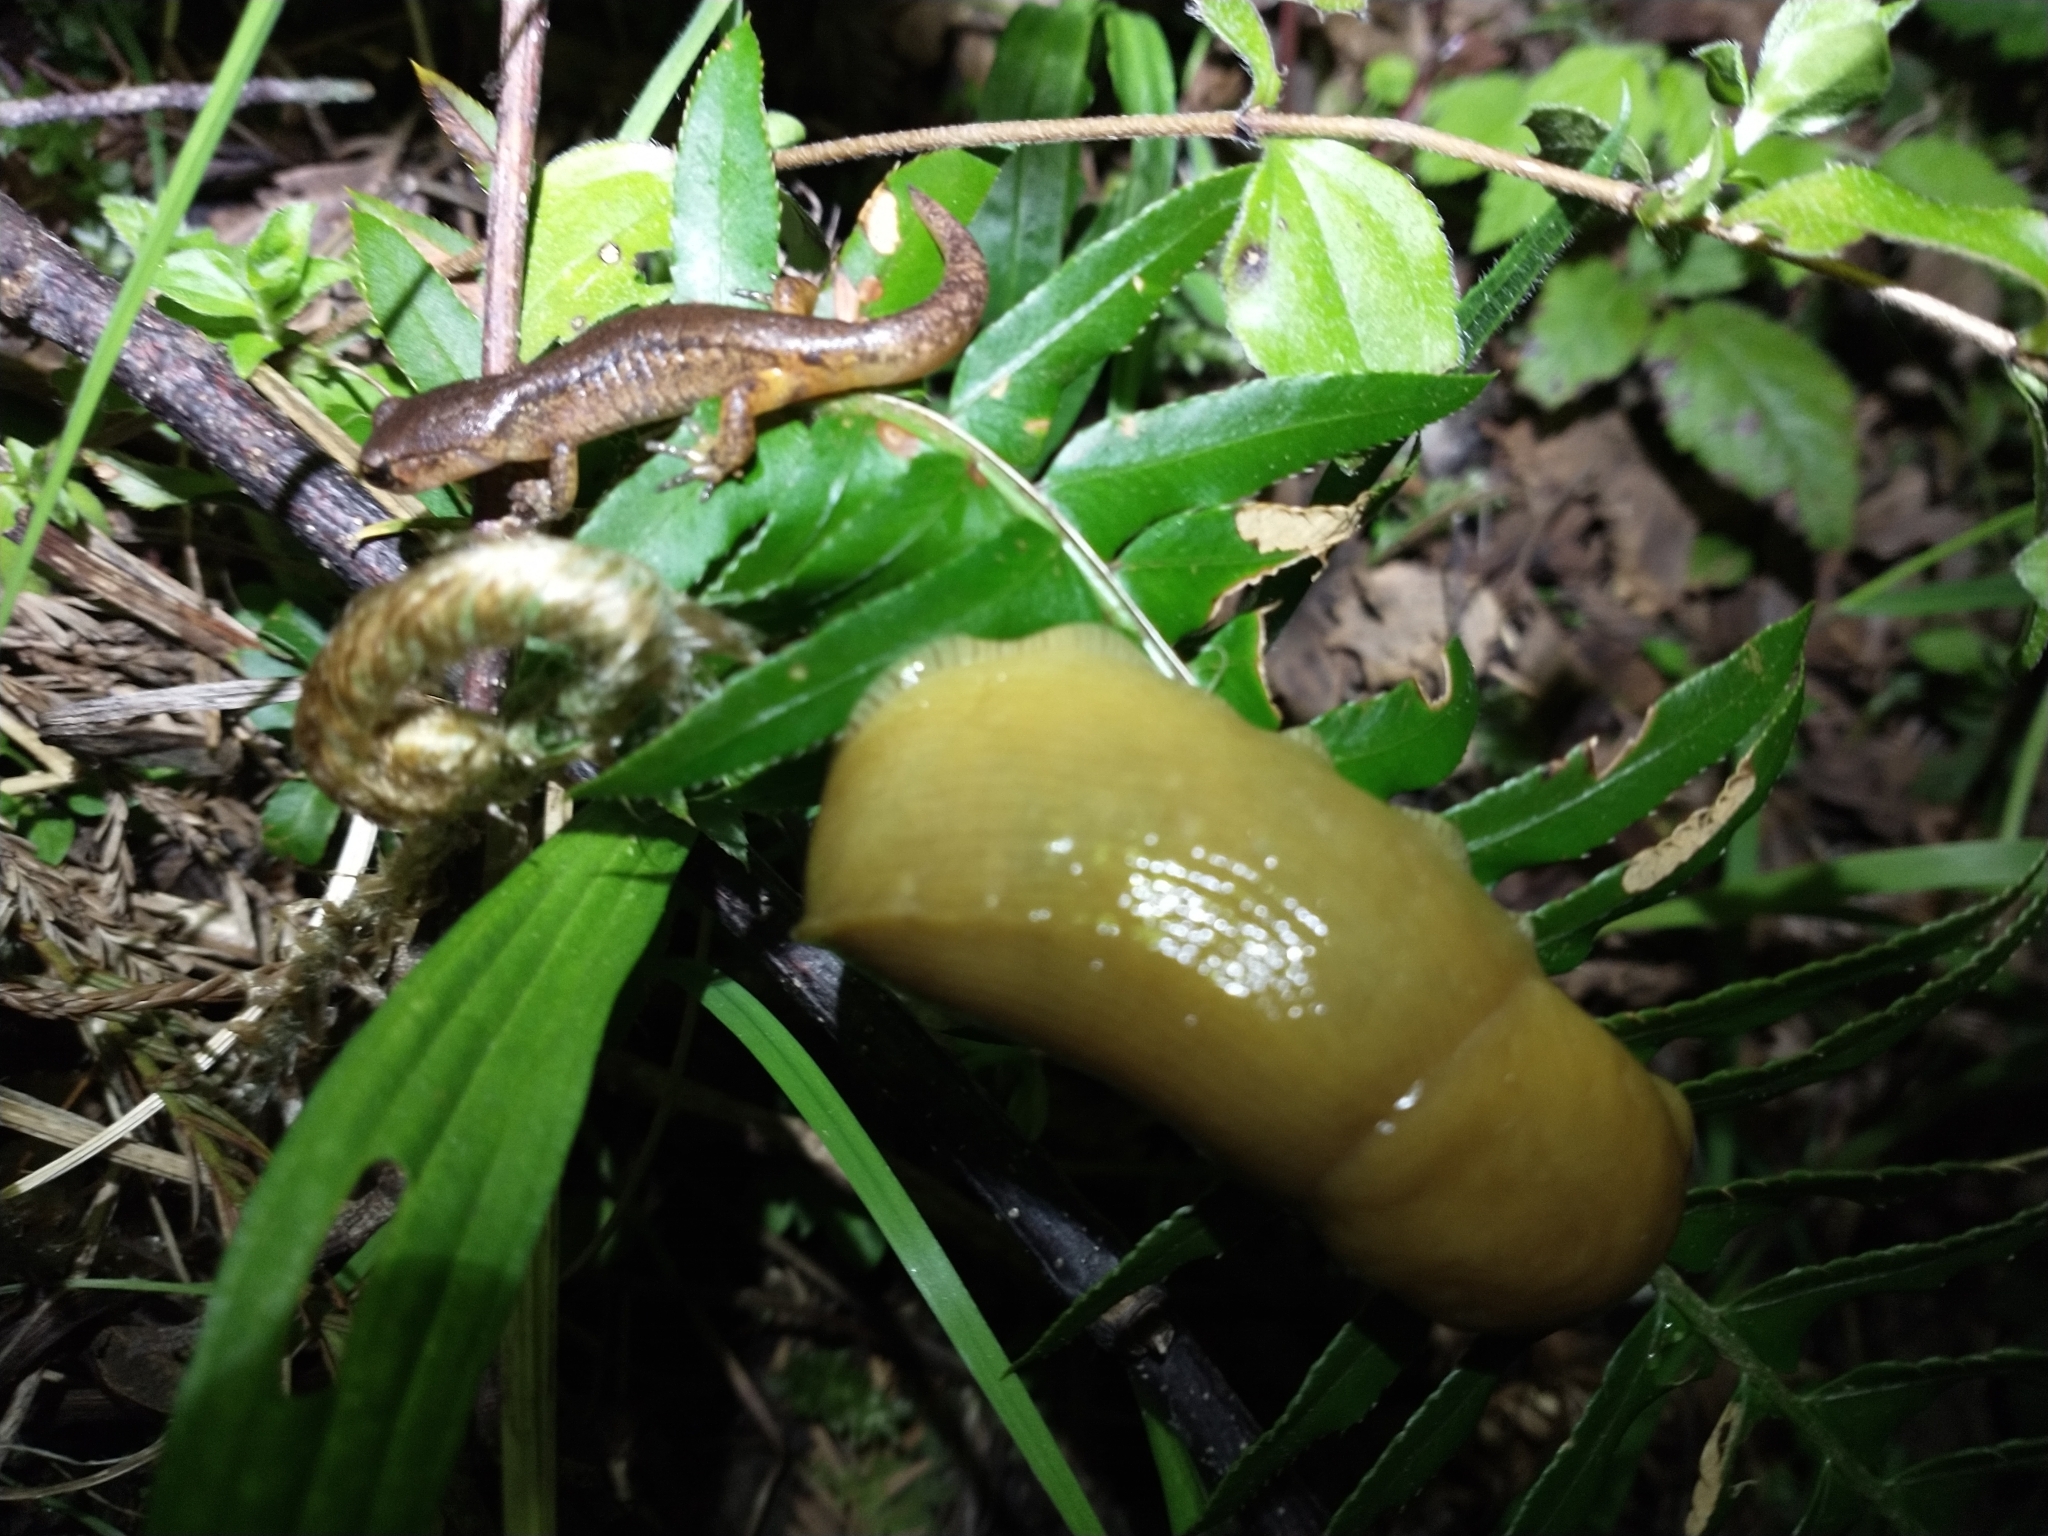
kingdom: Animalia
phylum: Chordata
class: Amphibia
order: Caudata
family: Plethodontidae
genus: Ensatina
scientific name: Ensatina eschscholtzii
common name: Ensatina
